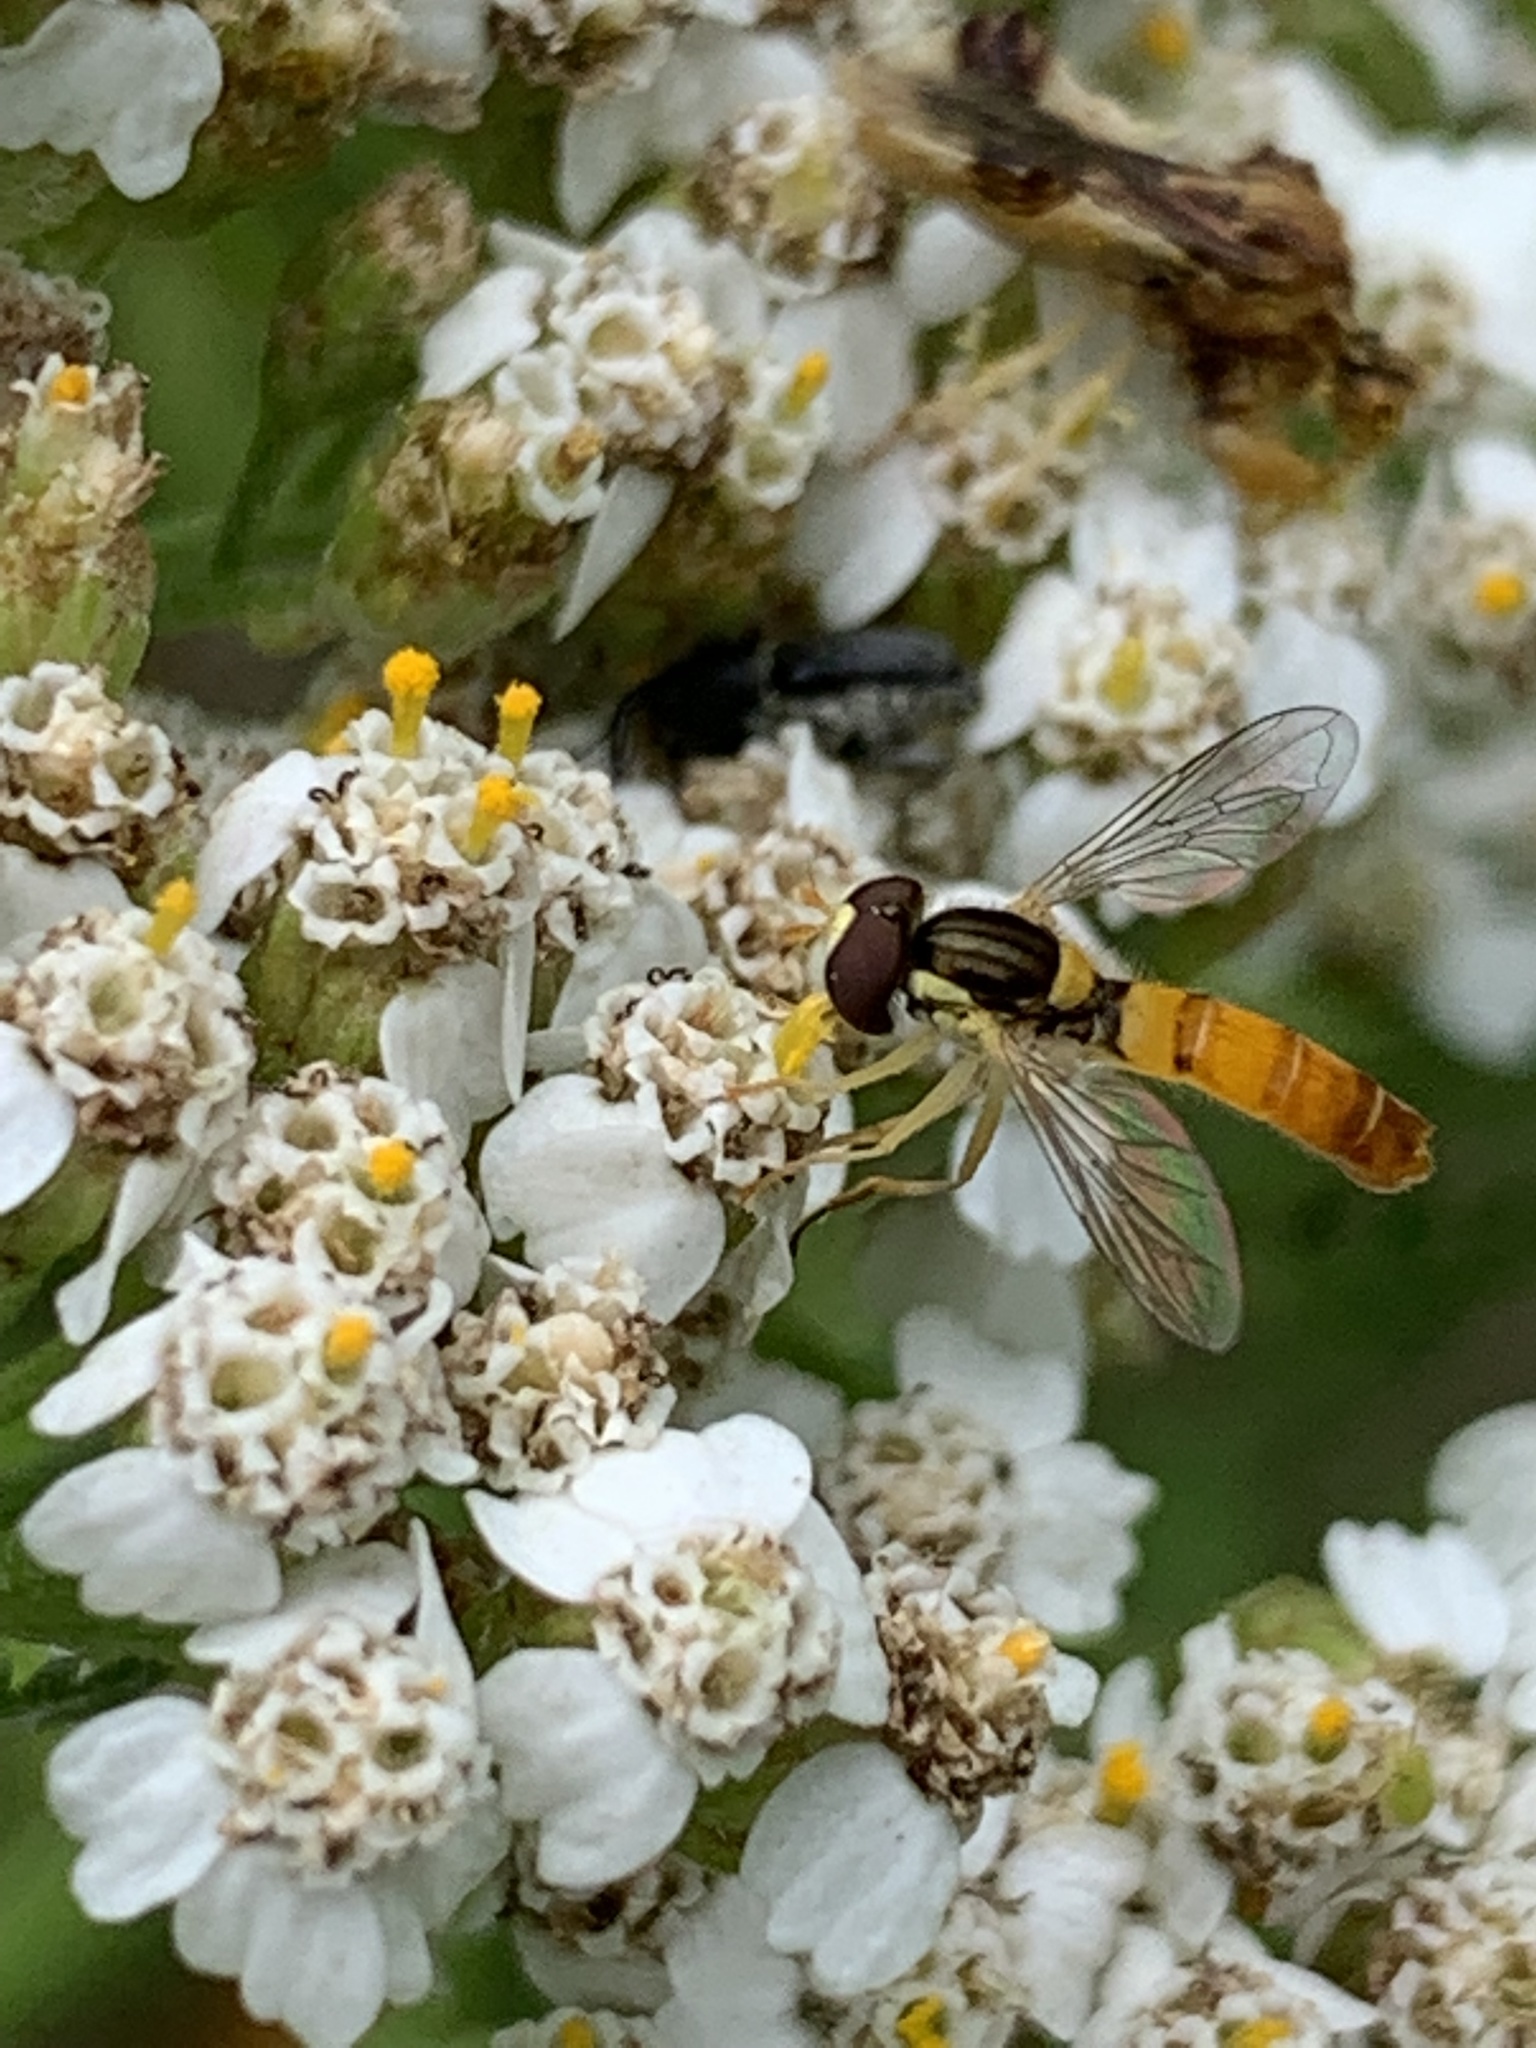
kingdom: Animalia
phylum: Arthropoda
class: Insecta
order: Diptera
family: Syrphidae
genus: Sphaerophoria
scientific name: Sphaerophoria contigua
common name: Tufted globetail
